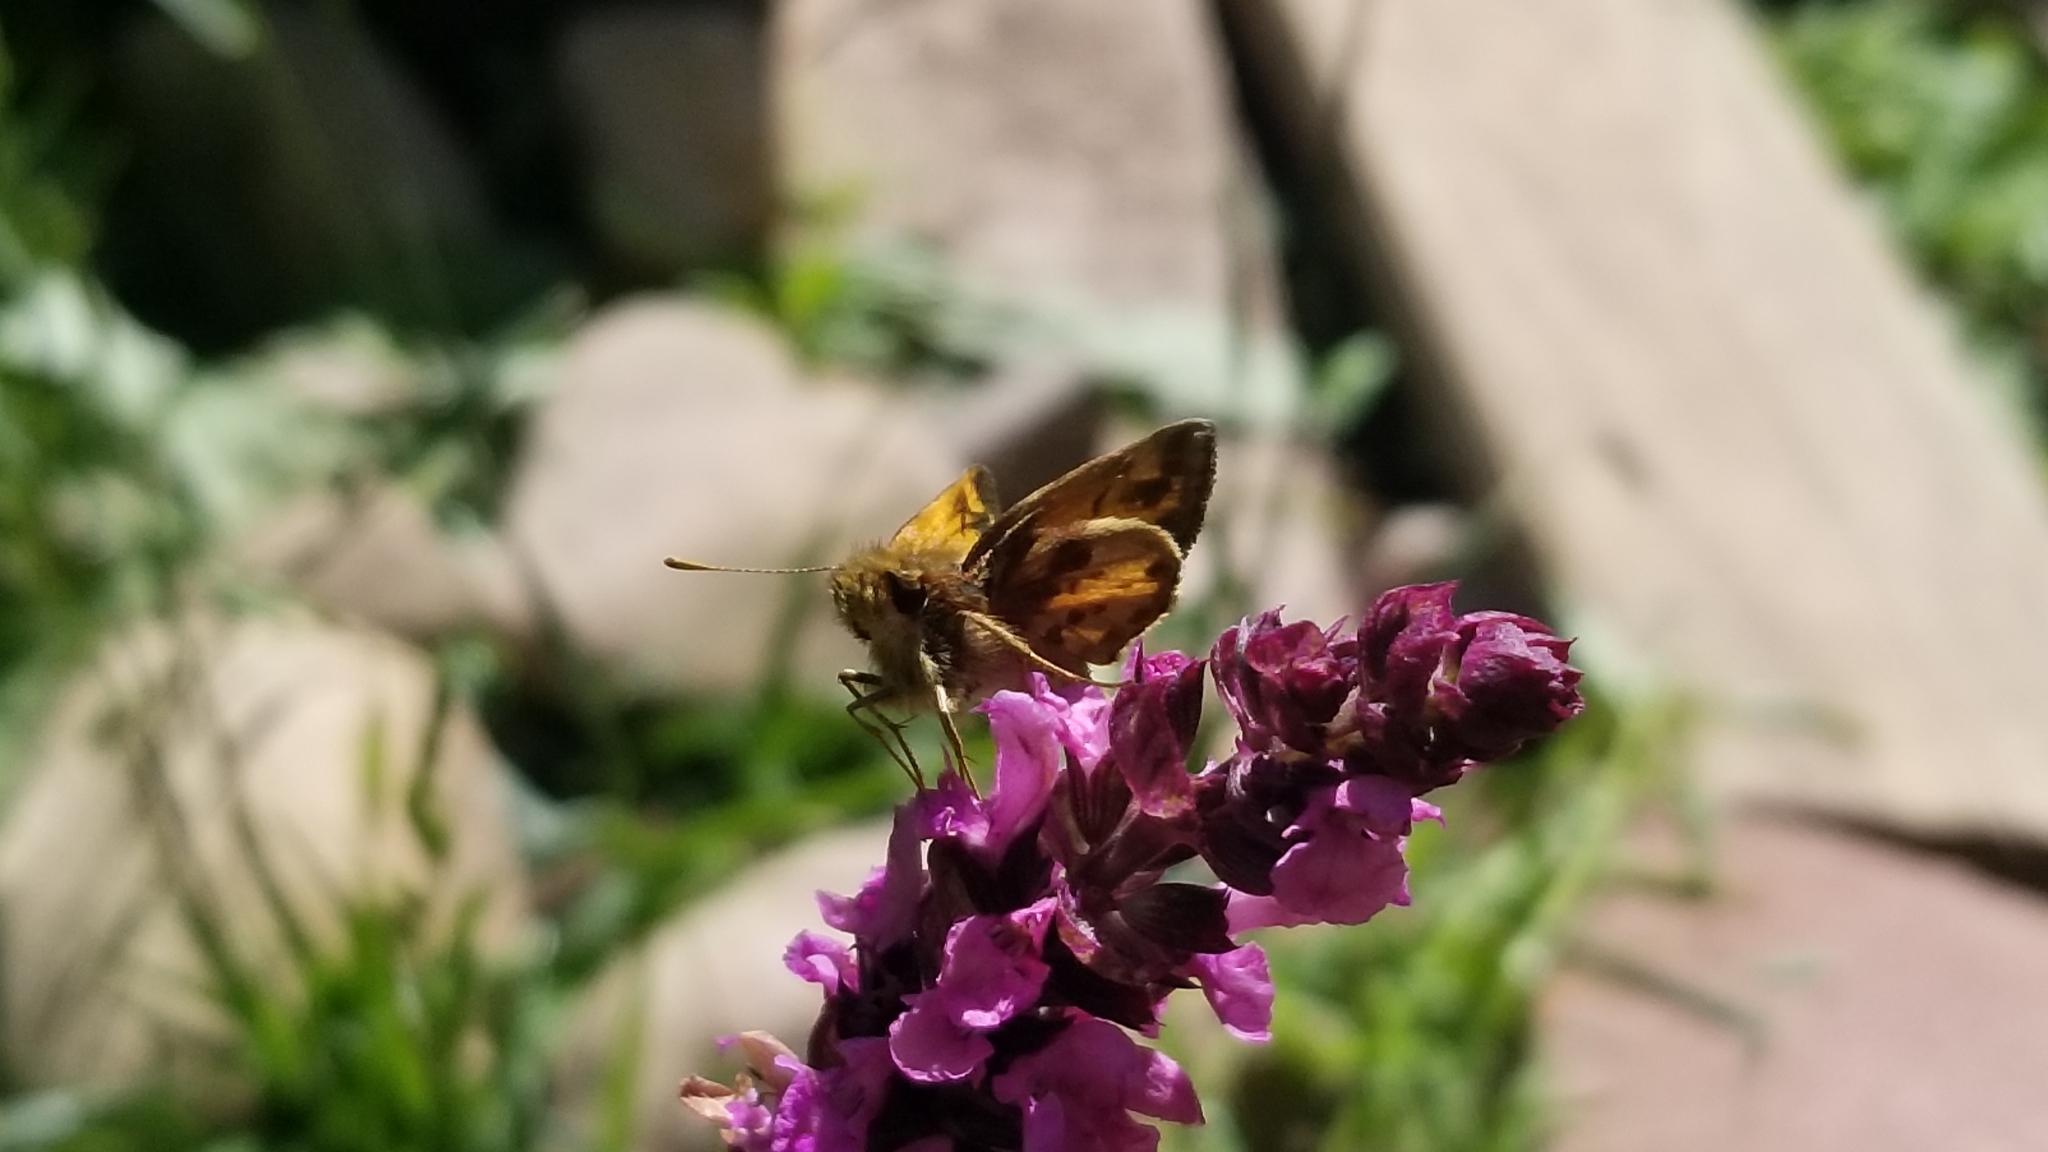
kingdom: Animalia
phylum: Arthropoda
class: Insecta
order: Lepidoptera
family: Hesperiidae
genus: Lon
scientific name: Lon zabulon
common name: Zabulon skipper
